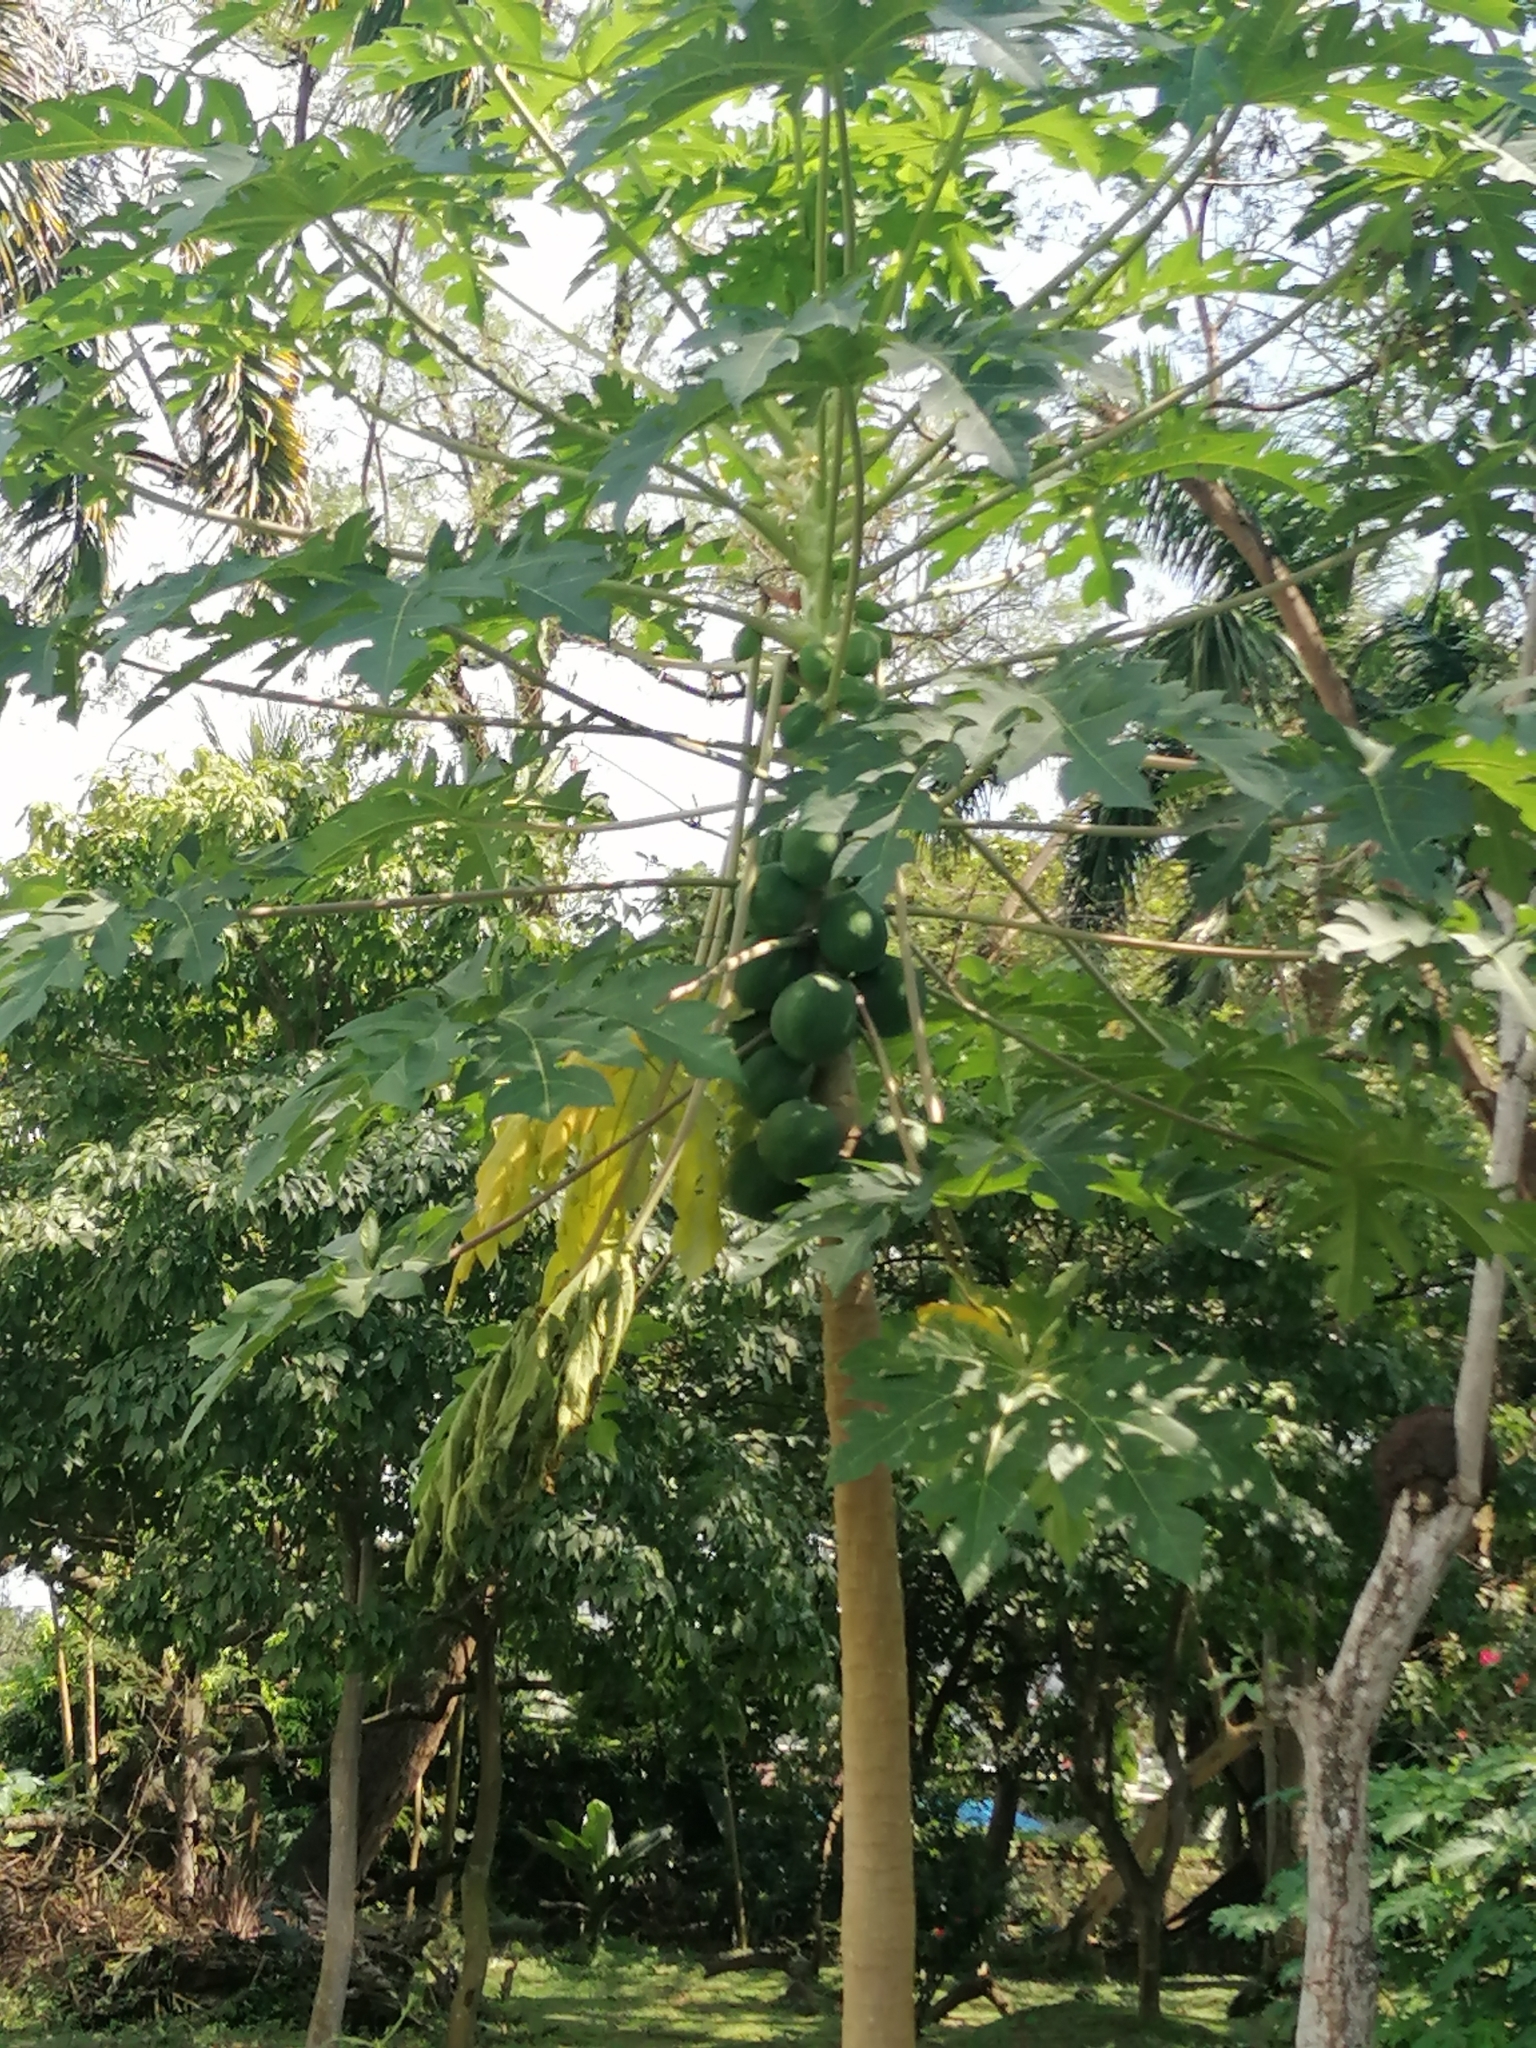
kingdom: Plantae
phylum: Tracheophyta
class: Magnoliopsida
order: Brassicales
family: Caricaceae
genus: Carica
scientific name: Carica papaya
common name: Papaya
